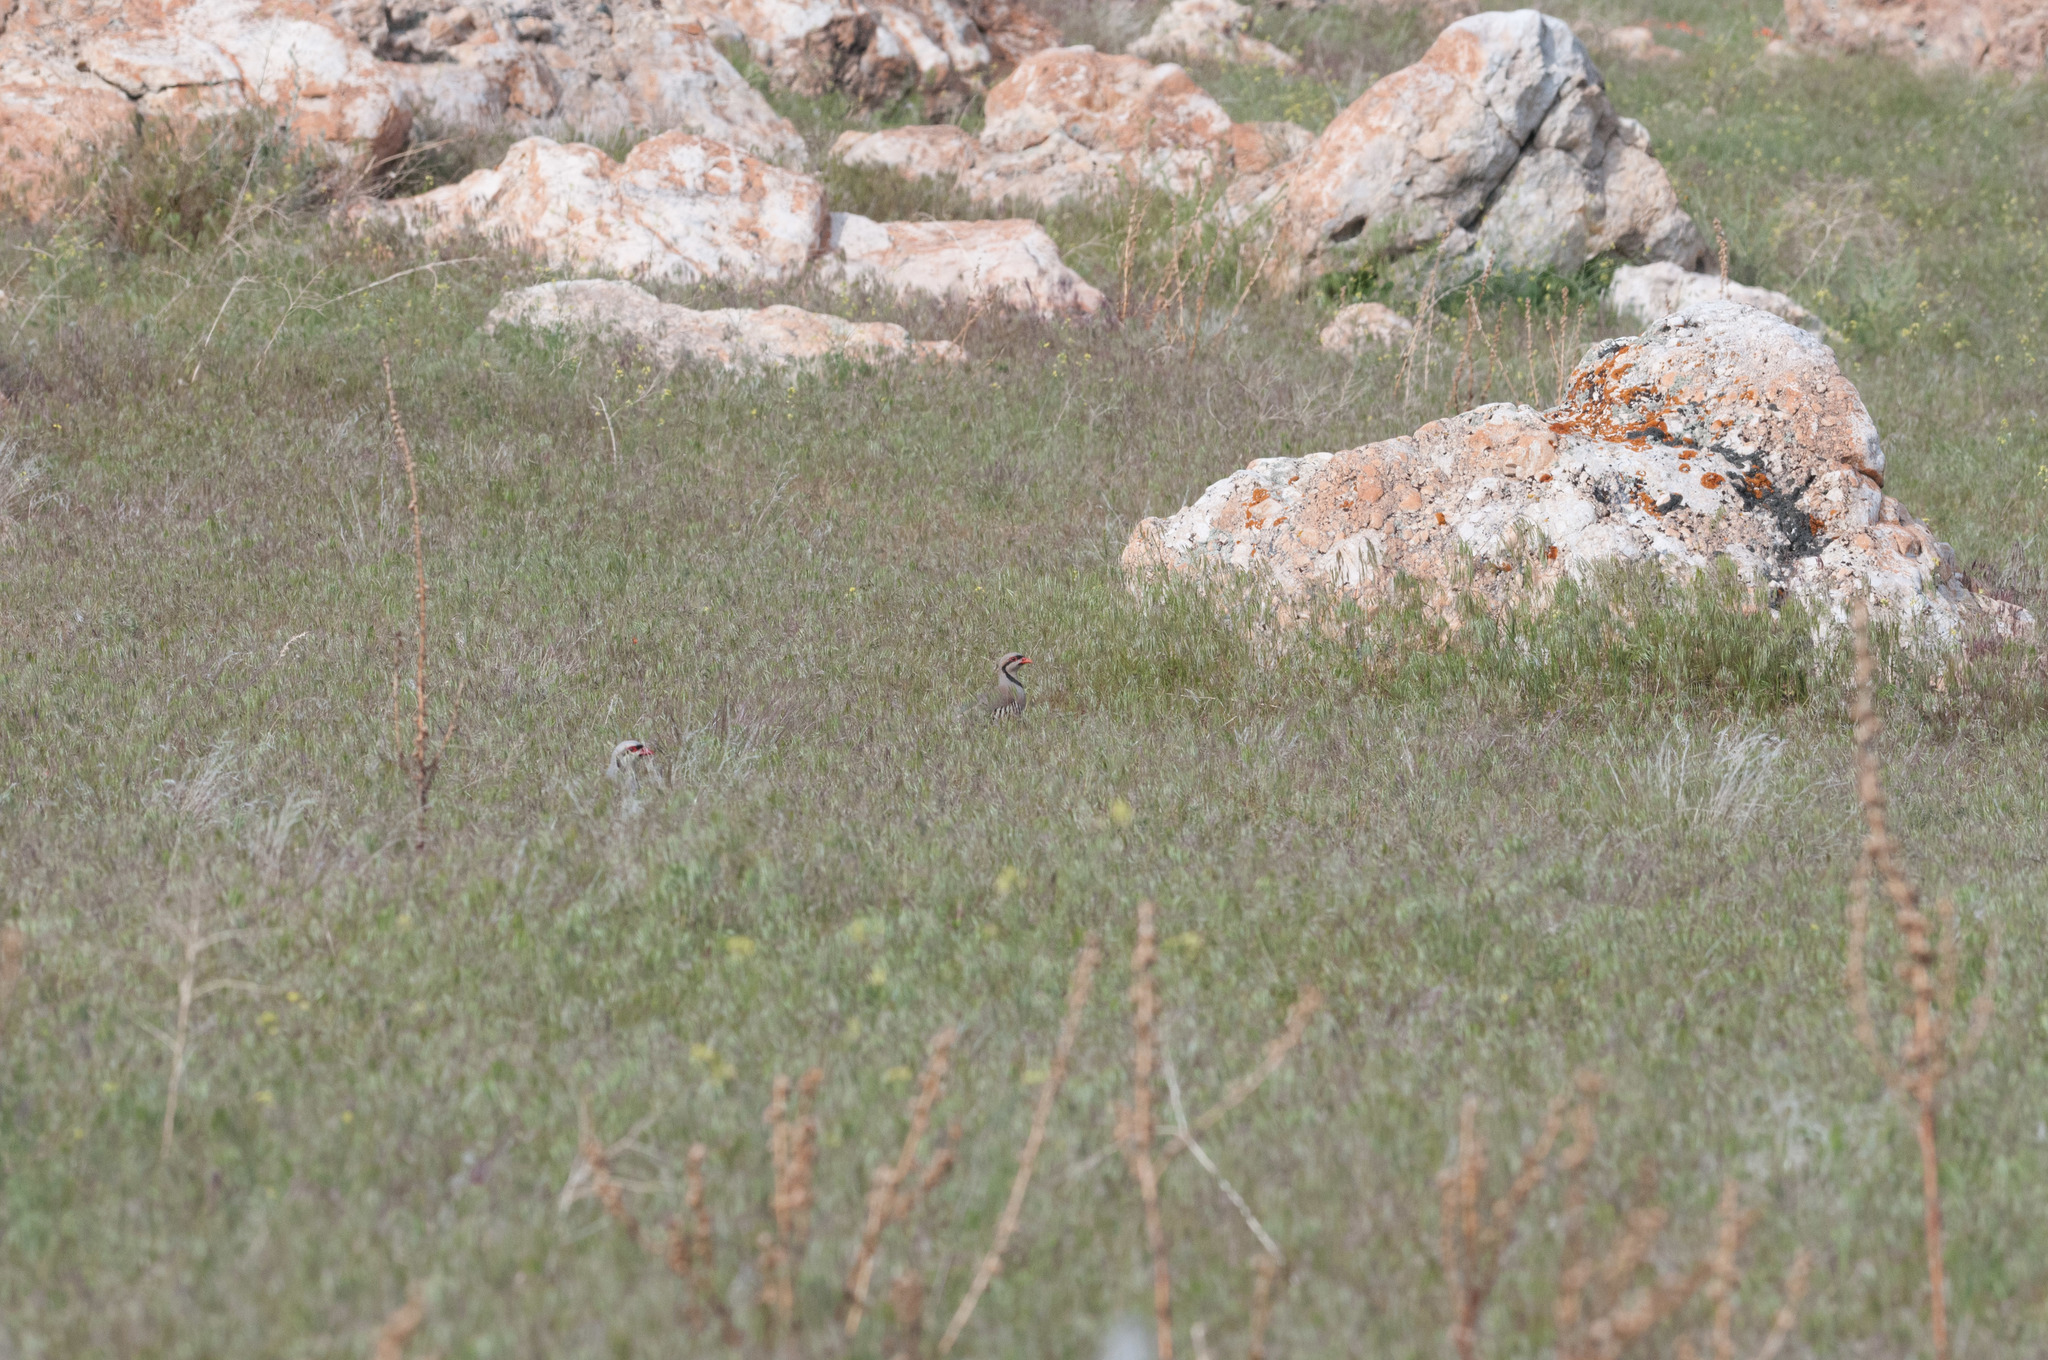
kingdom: Animalia
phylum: Chordata
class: Aves
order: Galliformes
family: Phasianidae
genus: Alectoris
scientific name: Alectoris chukar
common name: Chukar
